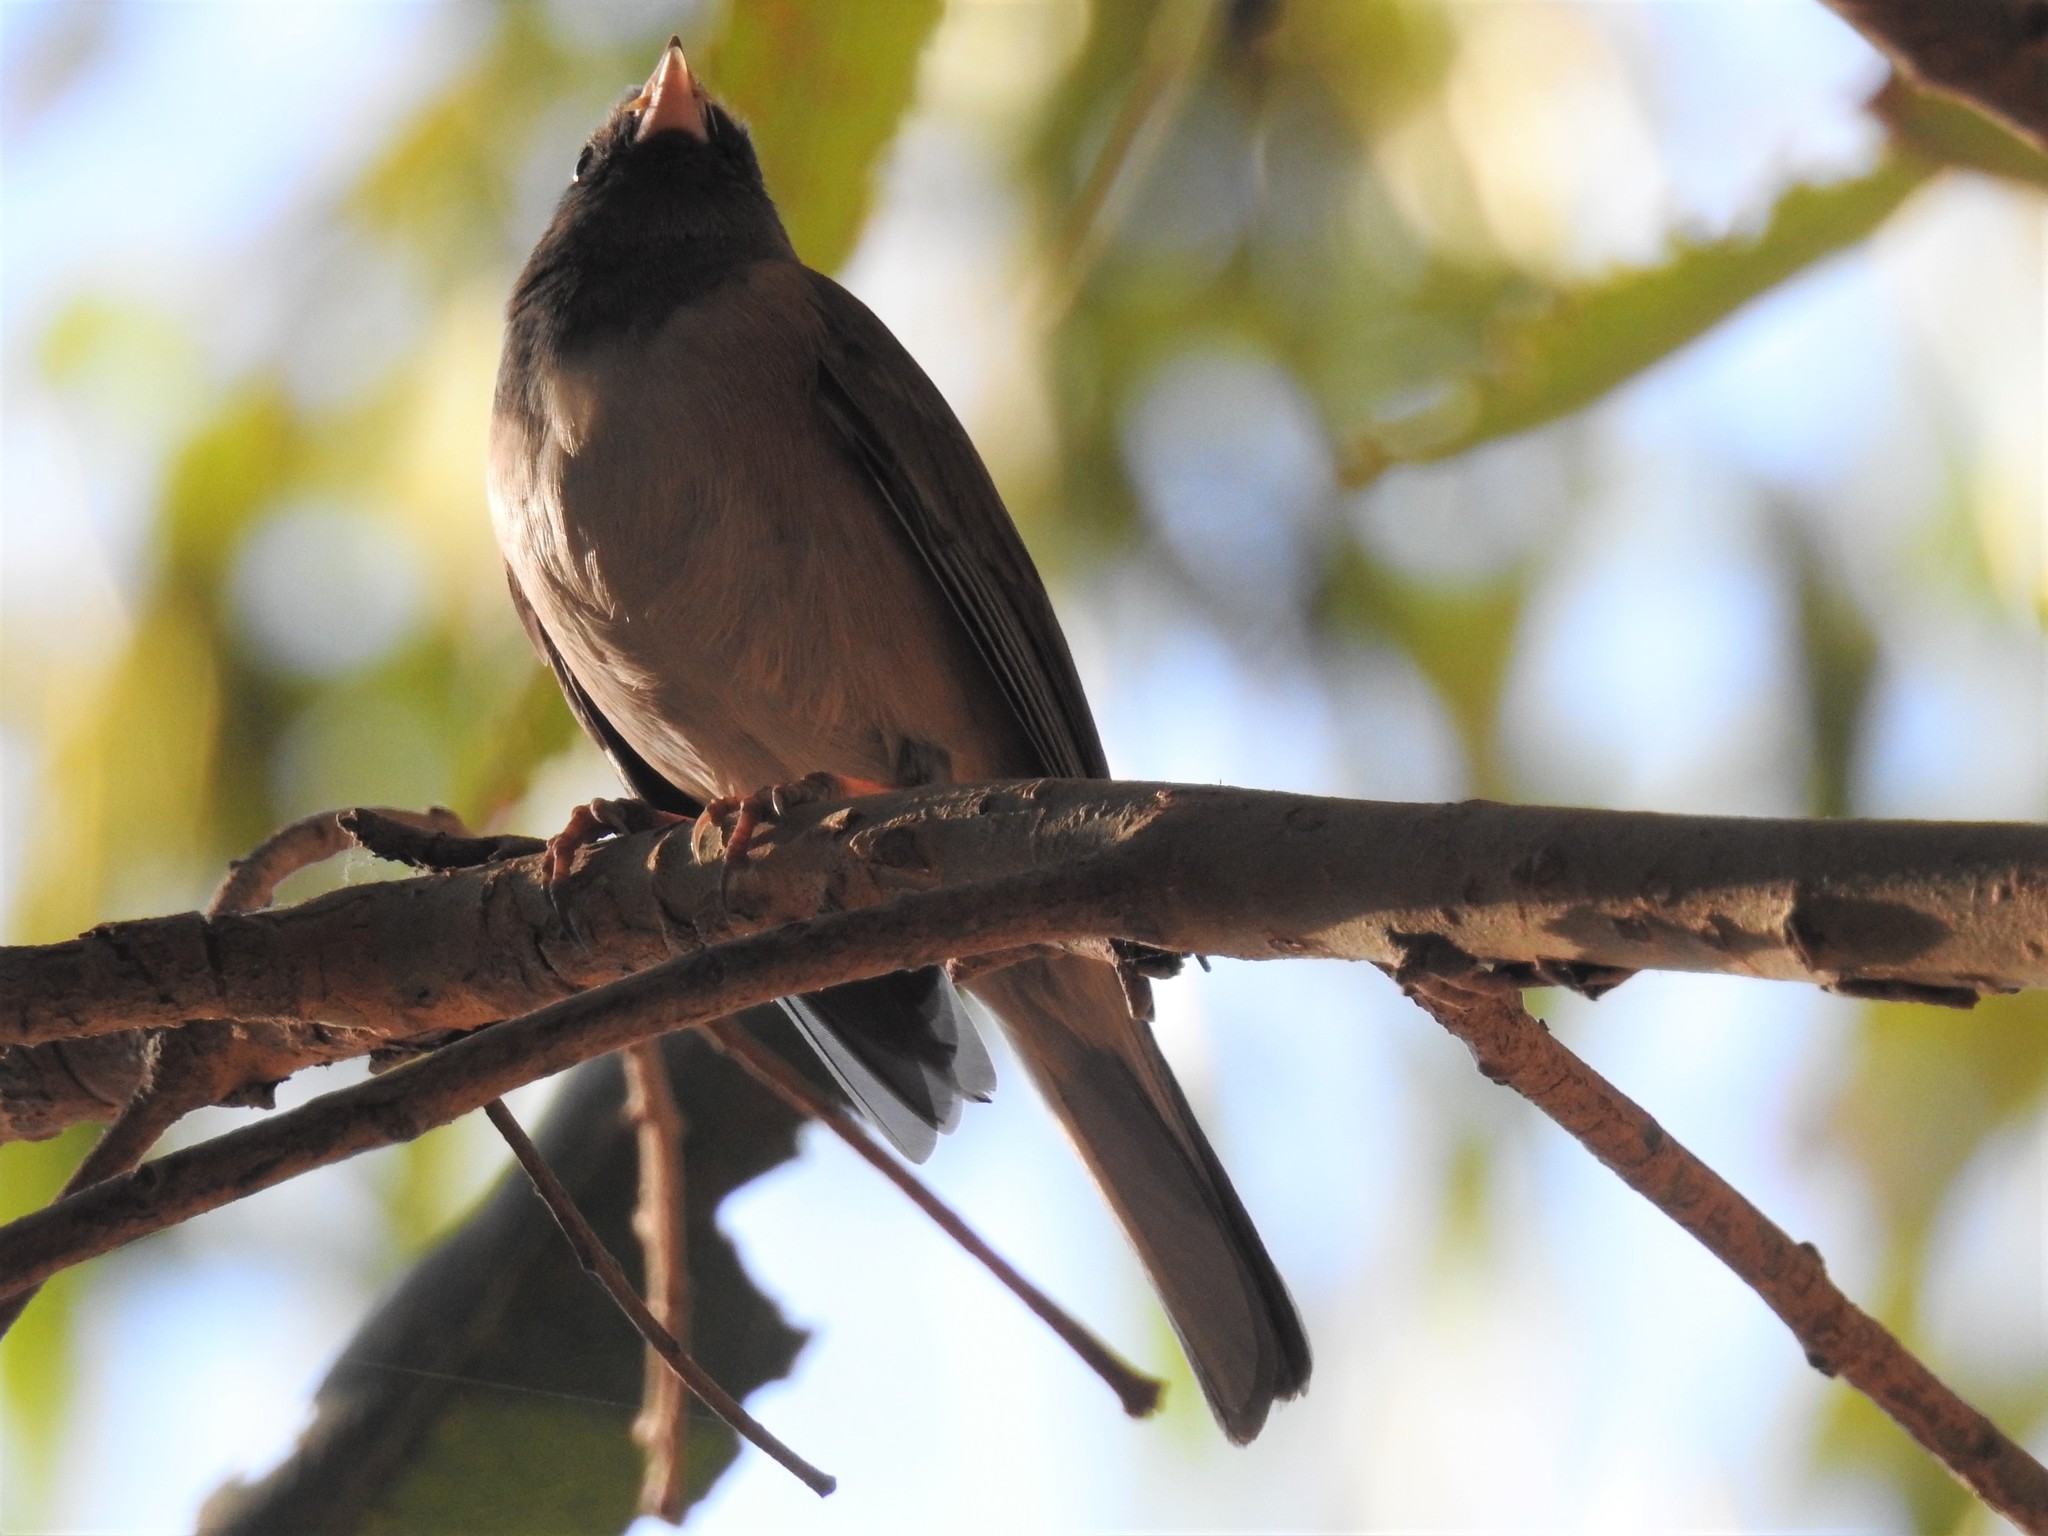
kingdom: Animalia
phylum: Chordata
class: Aves
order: Passeriformes
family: Passerellidae
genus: Junco
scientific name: Junco hyemalis
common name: Dark-eyed junco
